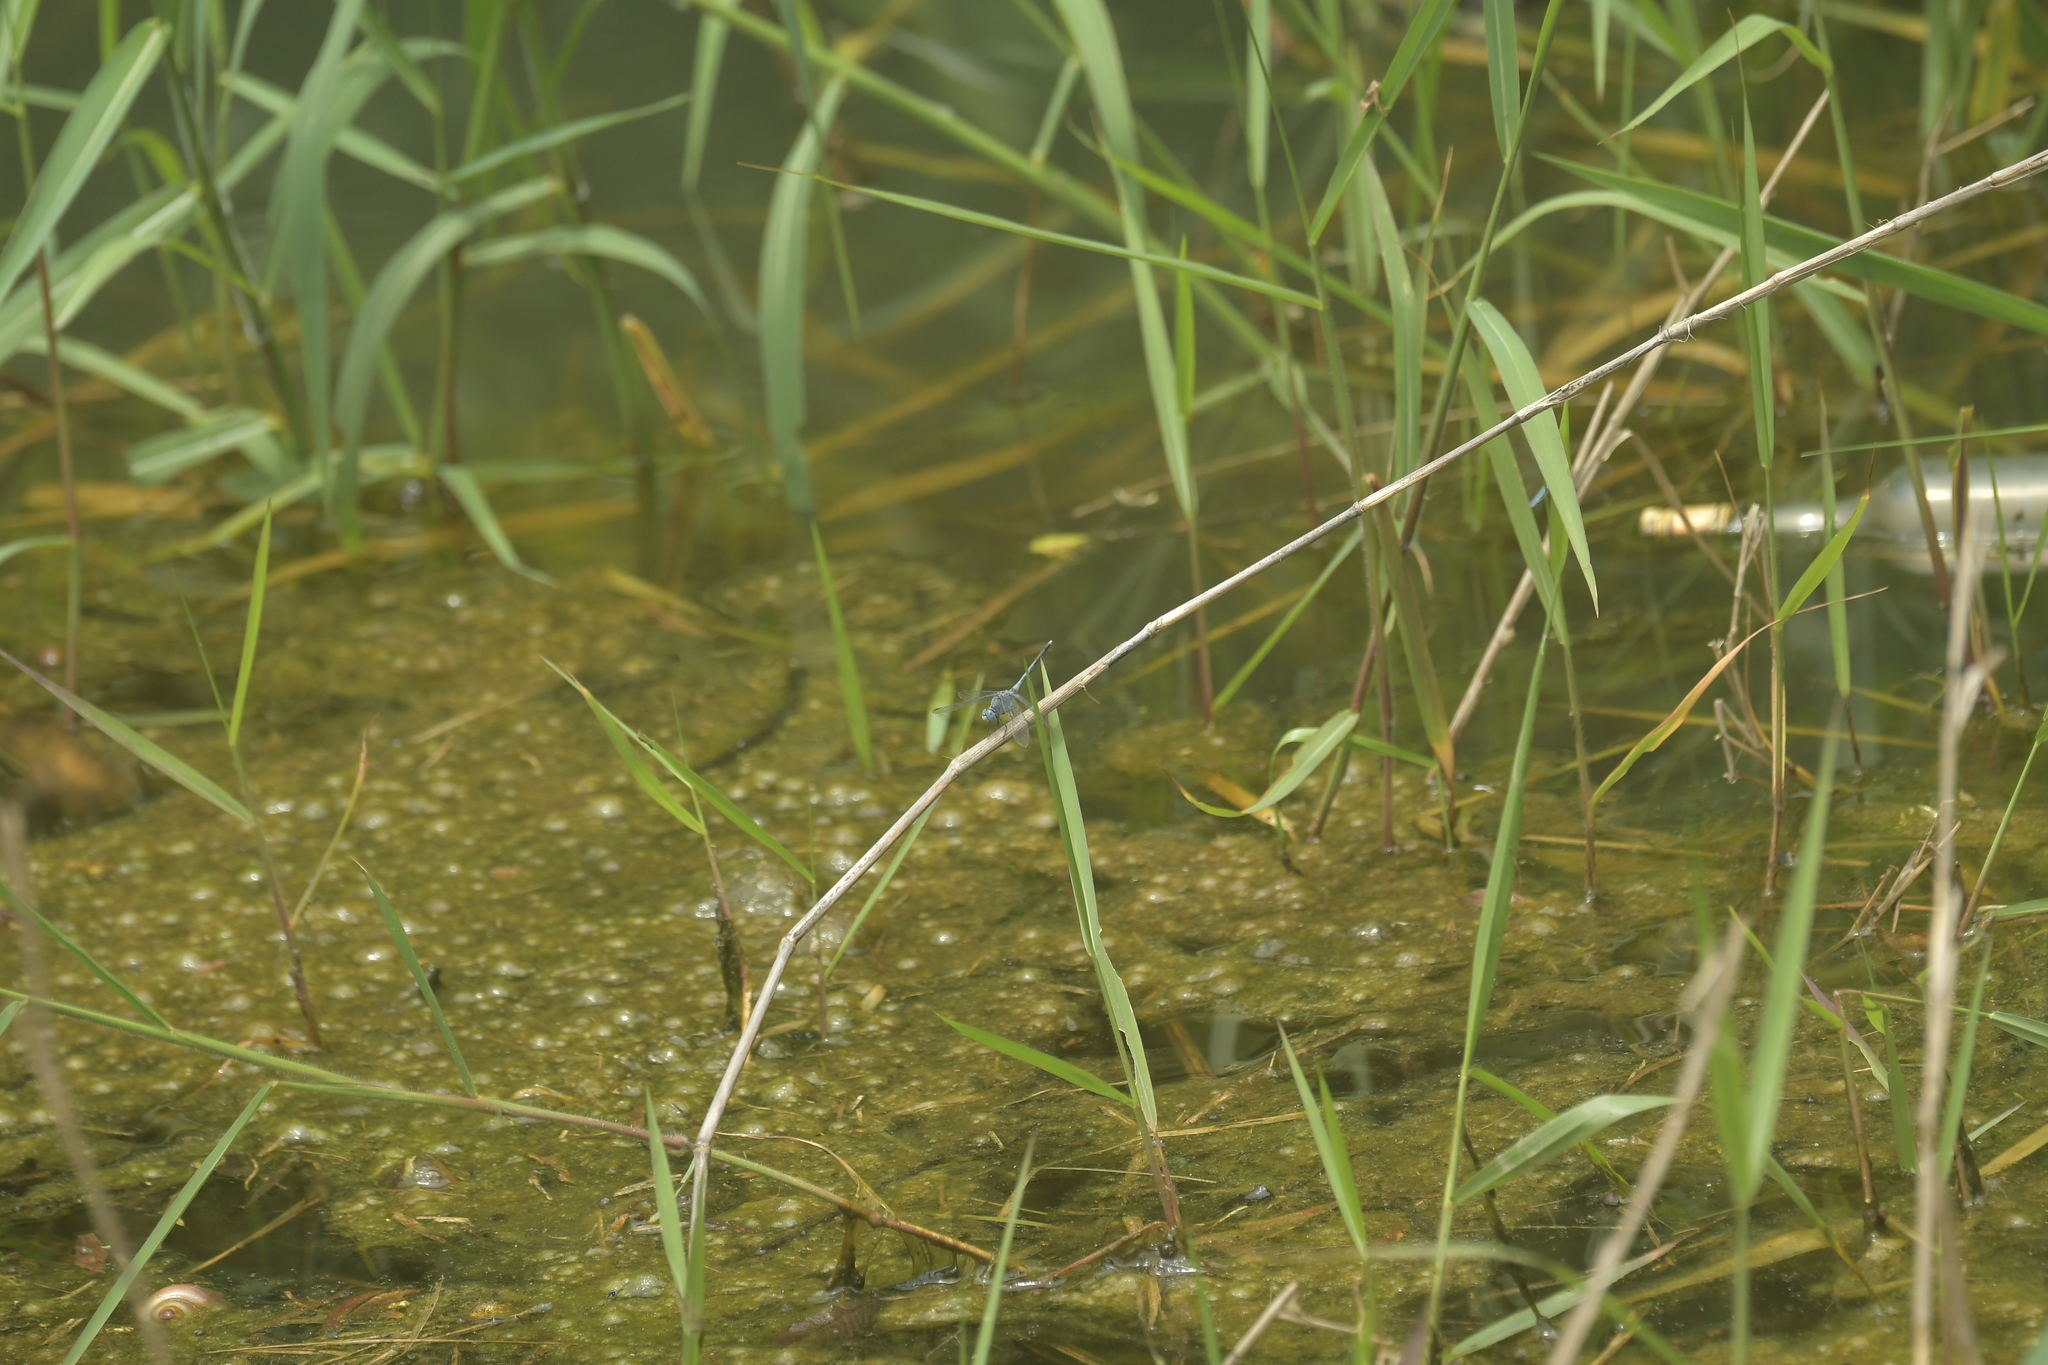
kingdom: Animalia
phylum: Arthropoda
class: Insecta
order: Odonata
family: Libellulidae
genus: Diplacodes
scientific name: Diplacodes trivialis
